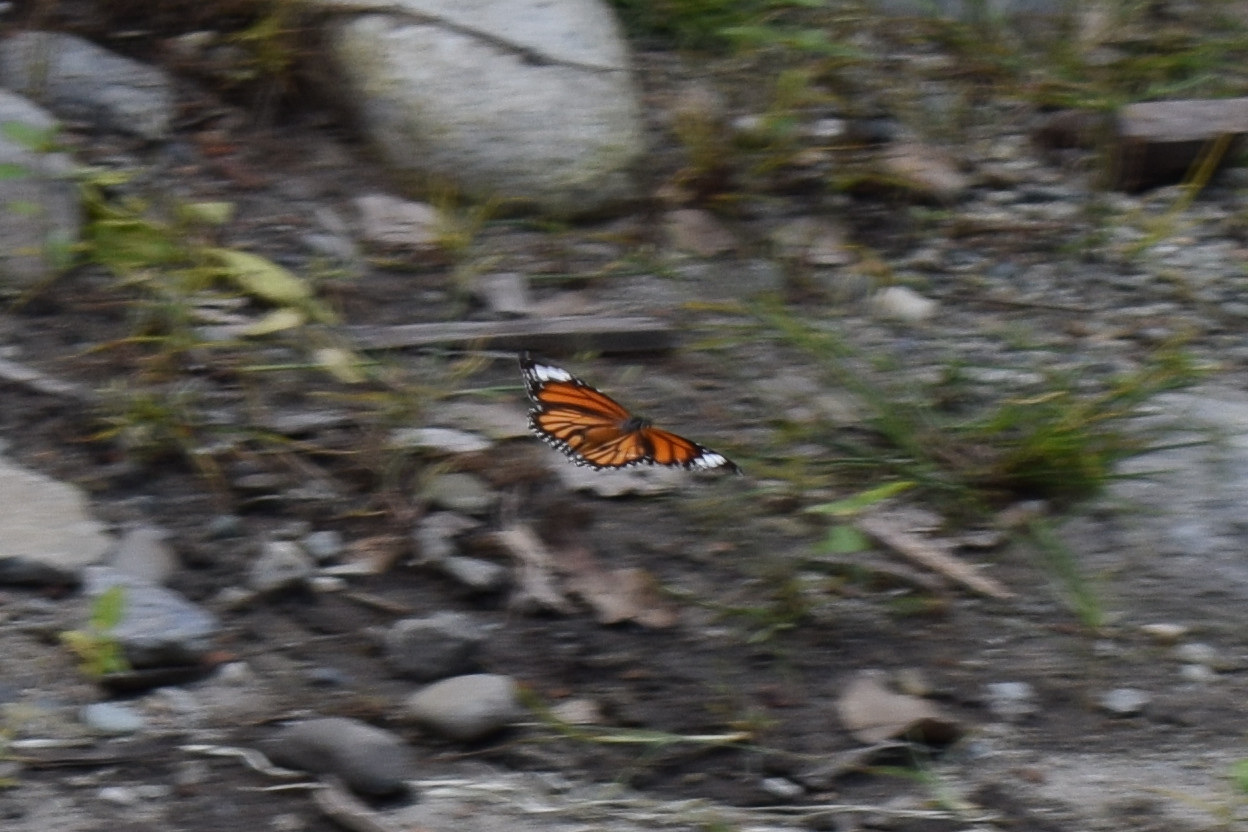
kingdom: Animalia
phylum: Arthropoda
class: Insecta
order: Lepidoptera
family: Nymphalidae
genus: Danaus
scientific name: Danaus genutia
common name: Common tiger butterfly
